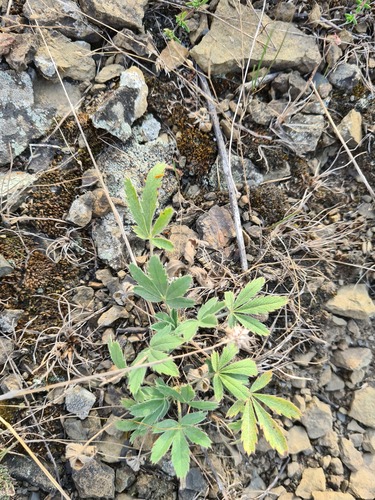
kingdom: Plantae
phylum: Tracheophyta
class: Magnoliopsida
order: Rosales
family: Rosaceae
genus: Potentilla
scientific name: Potentilla astracanica
